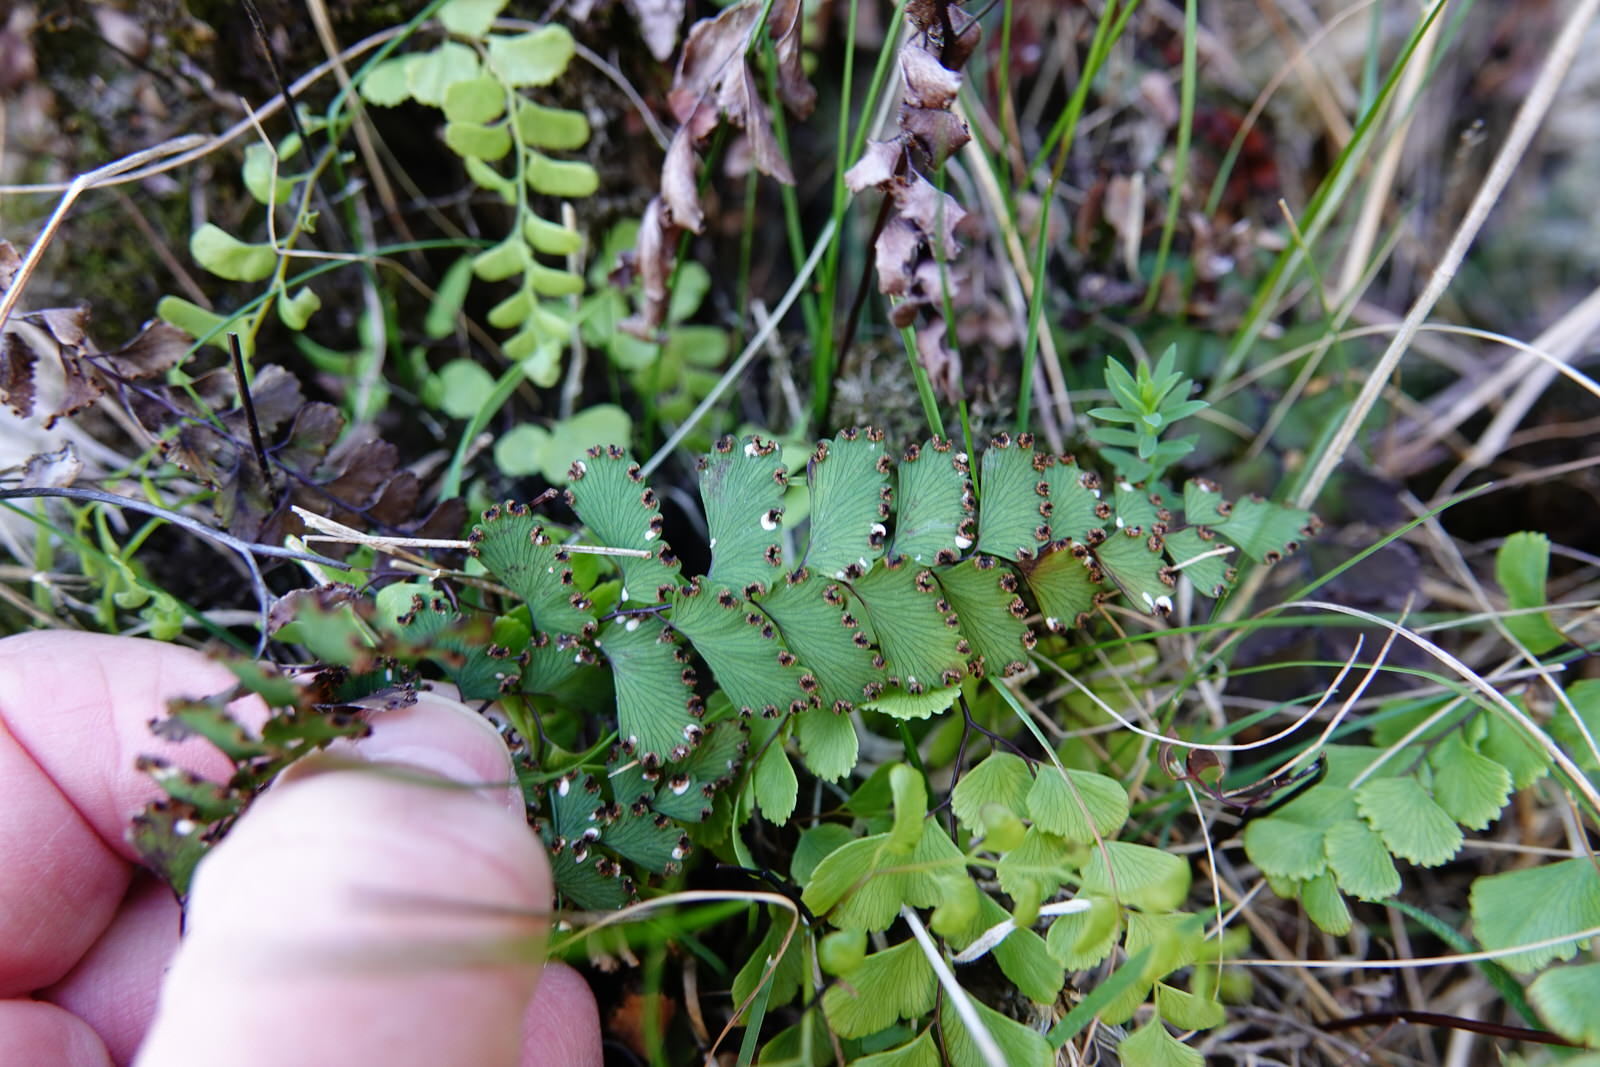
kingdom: Plantae
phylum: Tracheophyta
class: Polypodiopsida
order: Polypodiales
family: Pteridaceae
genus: Adiantum
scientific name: Adiantum cunninghamii
